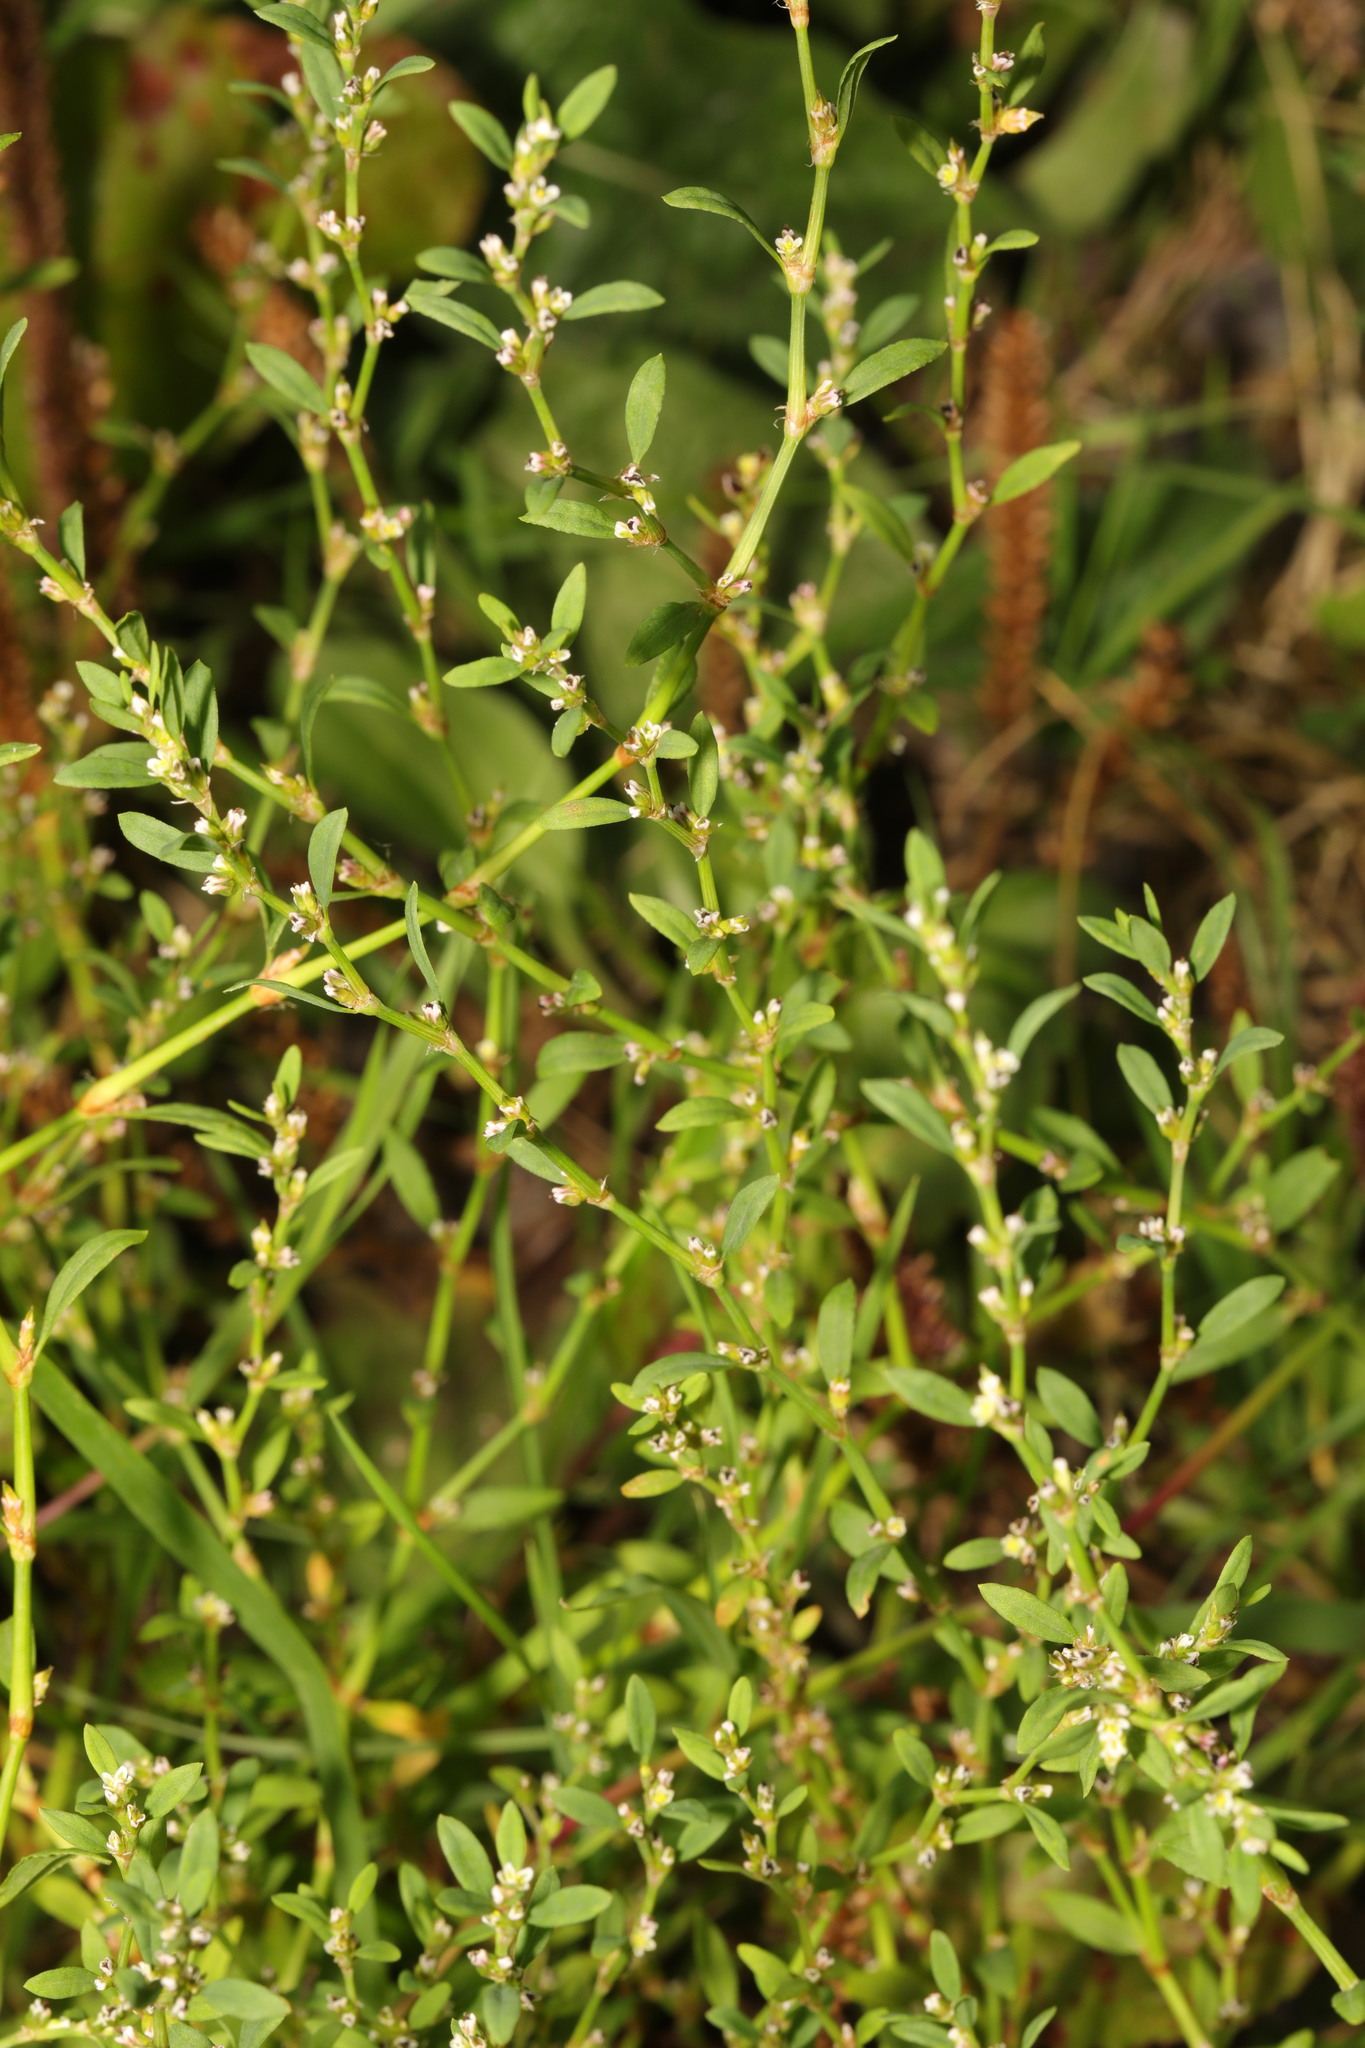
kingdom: Plantae
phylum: Tracheophyta
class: Magnoliopsida
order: Caryophyllales
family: Polygonaceae
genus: Polygonum
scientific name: Polygonum aviculare
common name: Prostrate knotweed
